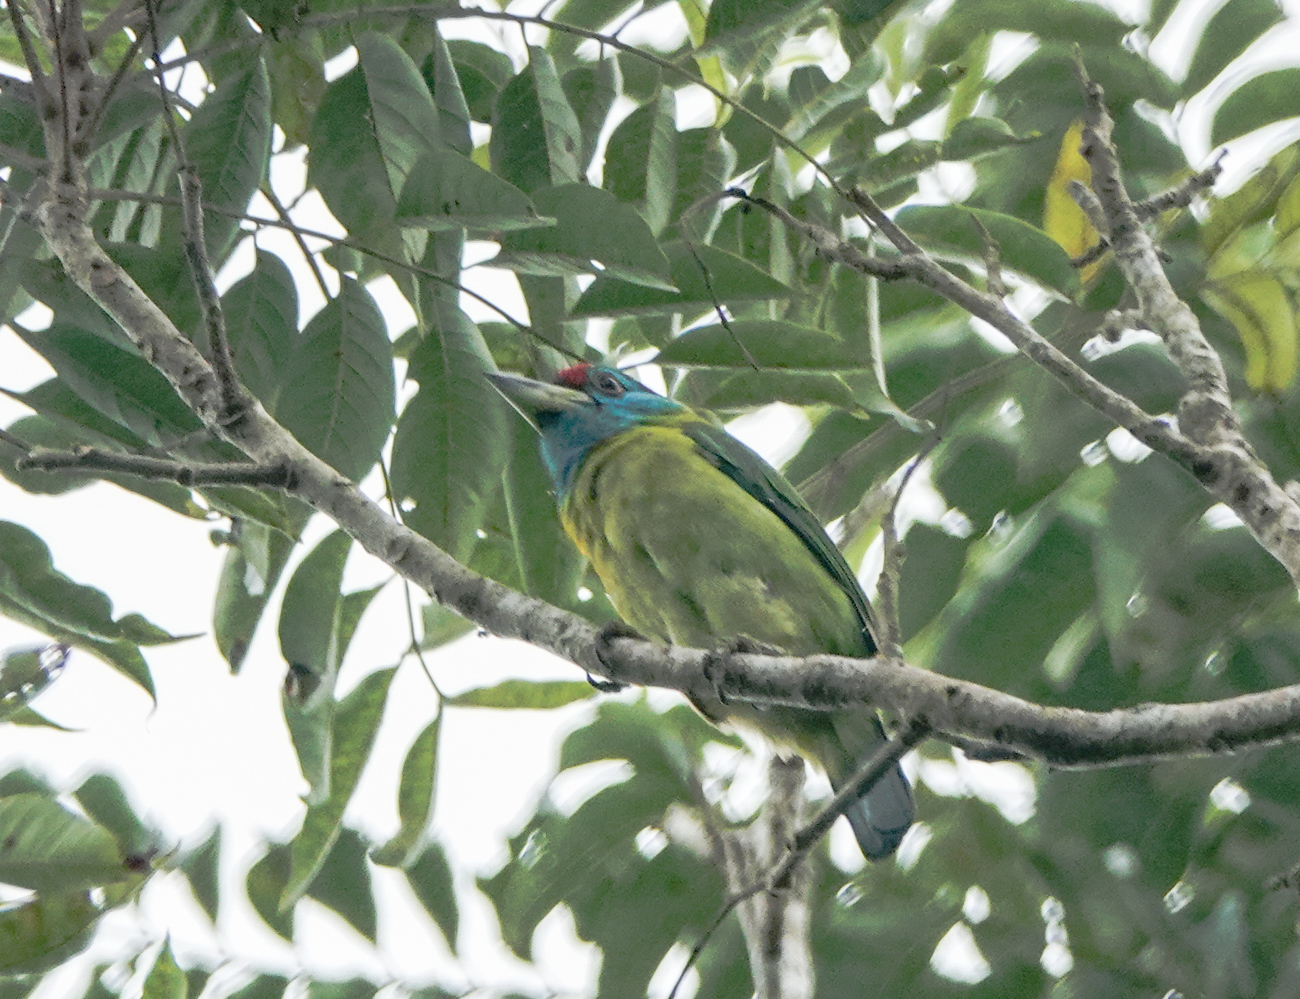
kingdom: Animalia
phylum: Chordata
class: Aves
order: Piciformes
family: Megalaimidae
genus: Psilopogon
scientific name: Psilopogon asiaticus
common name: Blue-throated barbet
